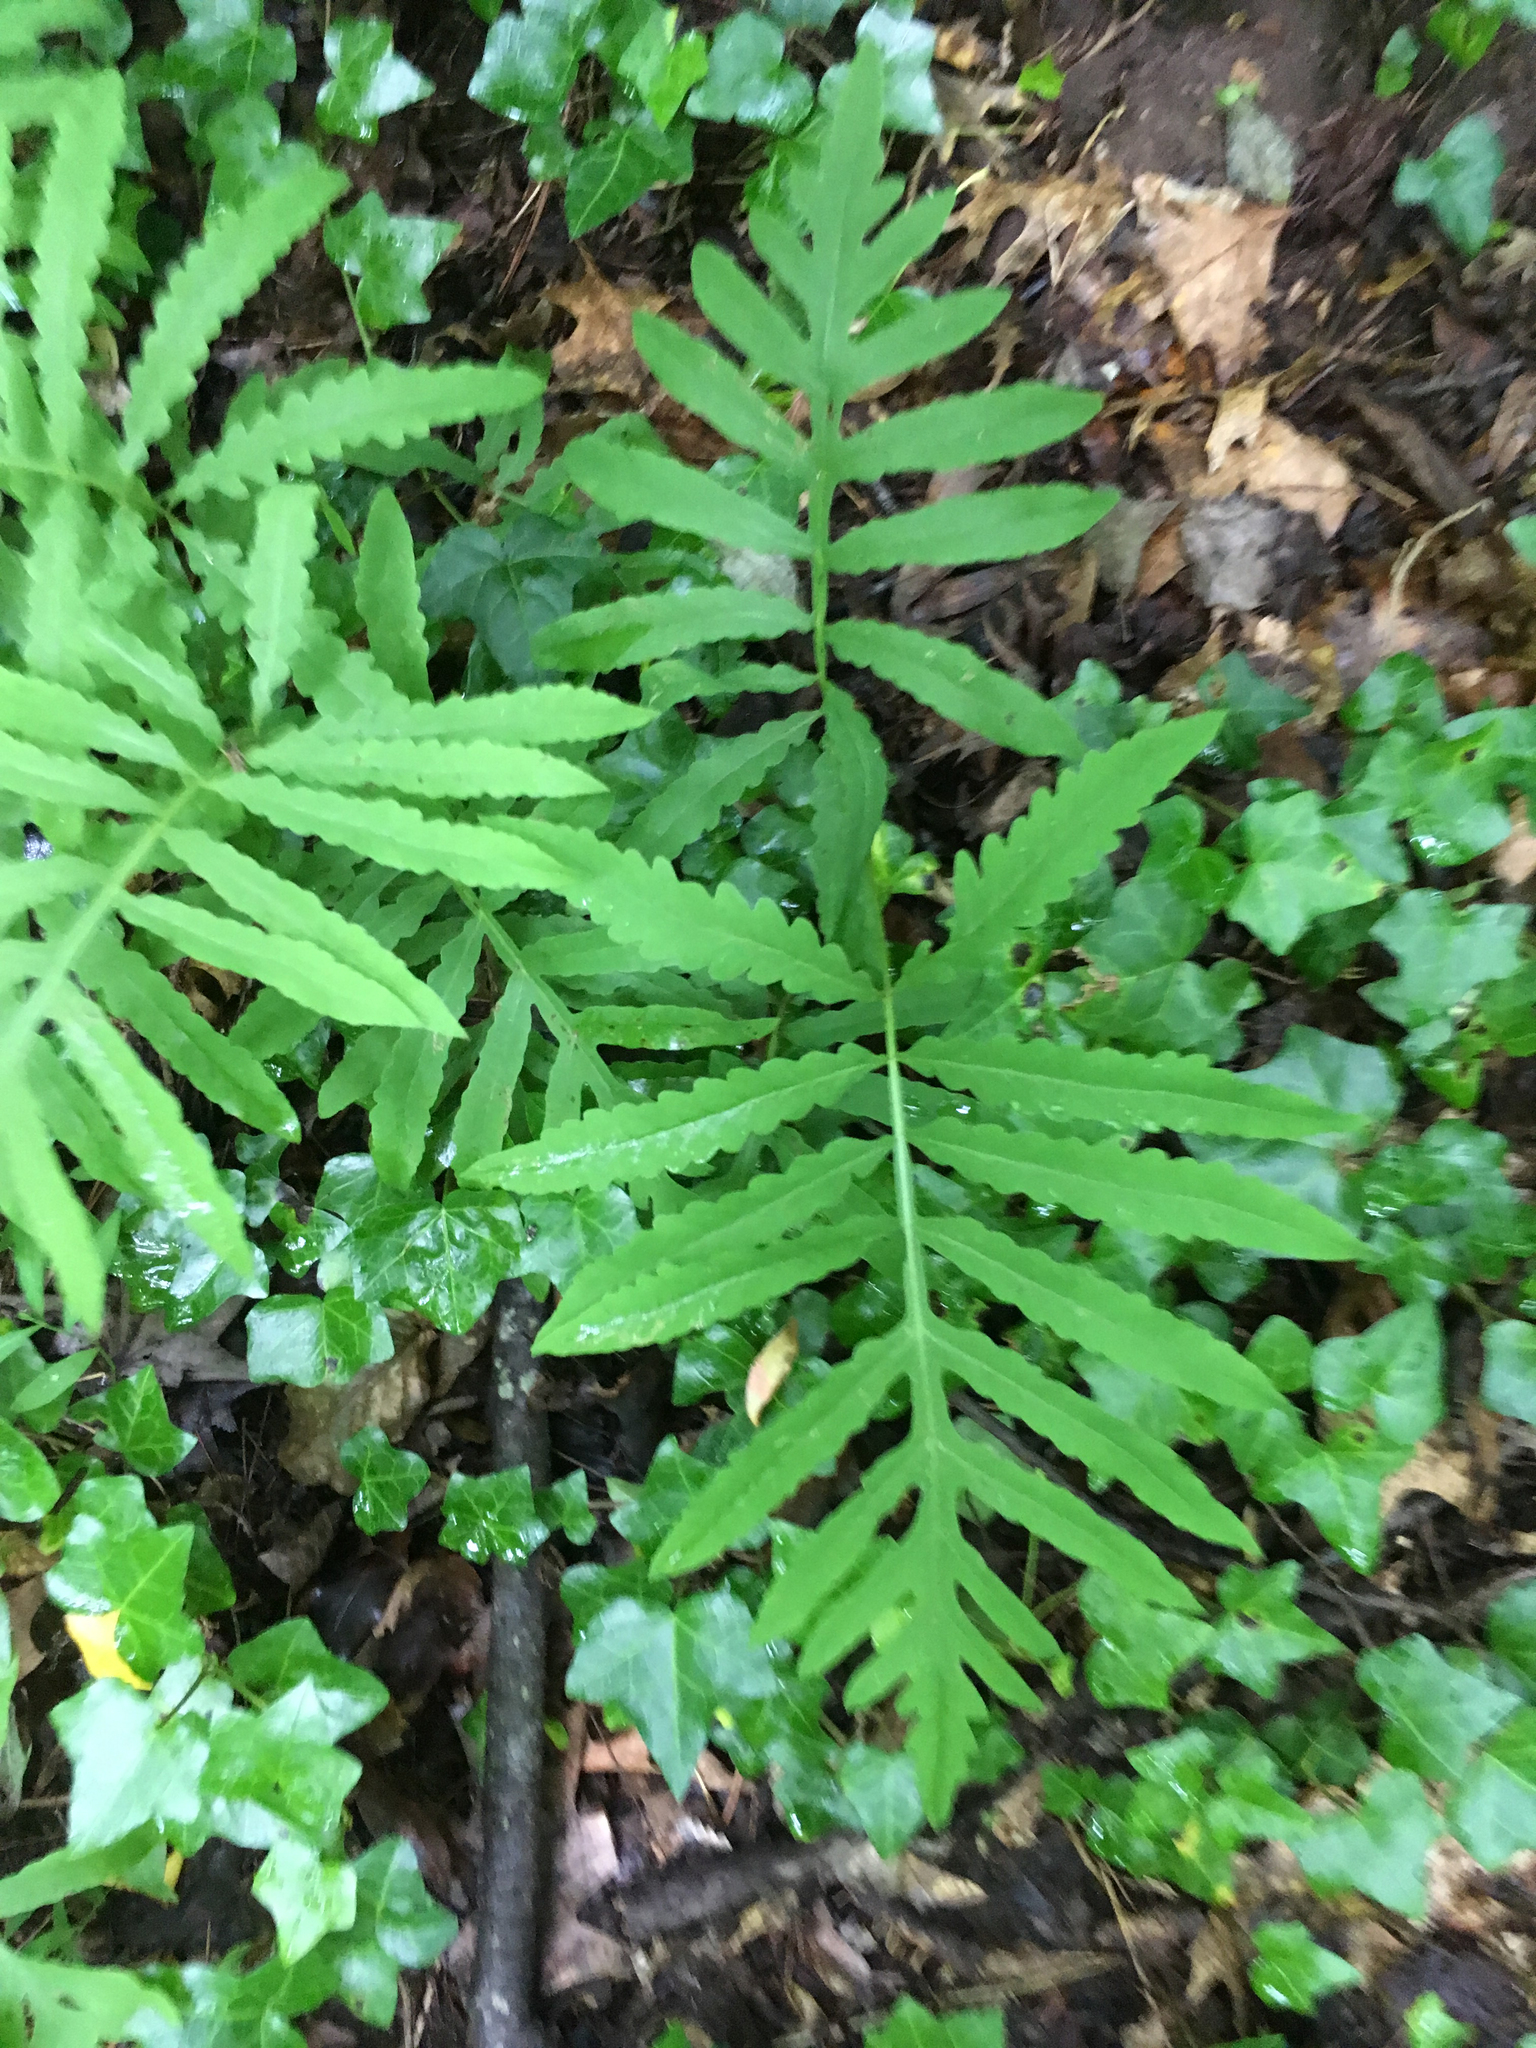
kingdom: Plantae
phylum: Tracheophyta
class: Polypodiopsida
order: Polypodiales
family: Onocleaceae
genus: Onoclea
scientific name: Onoclea sensibilis
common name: Sensitive fern
